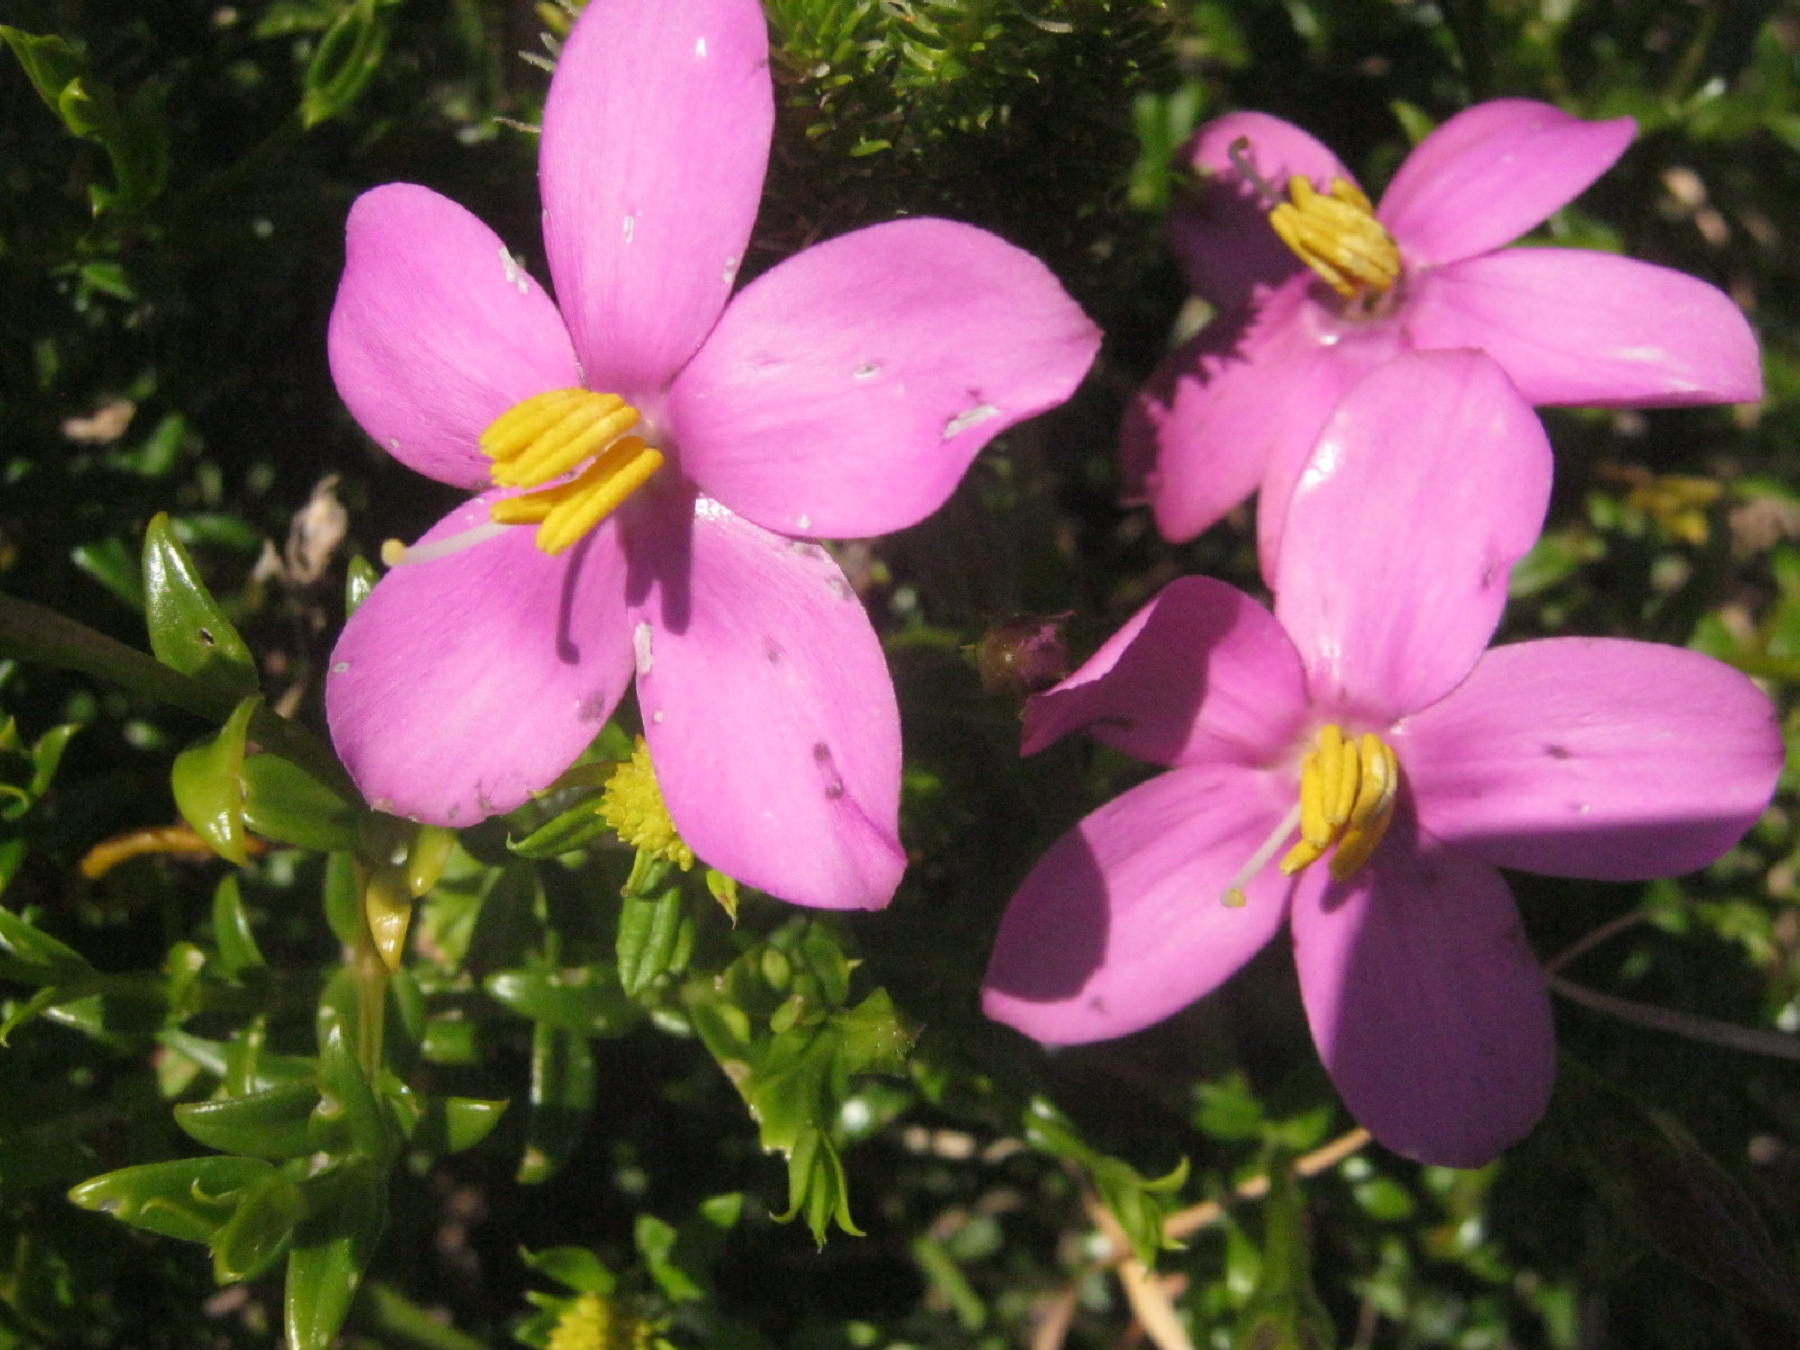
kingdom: Plantae
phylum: Tracheophyta
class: Magnoliopsida
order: Gentianales
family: Gentianaceae
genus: Chironia
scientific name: Chironia tetragona
